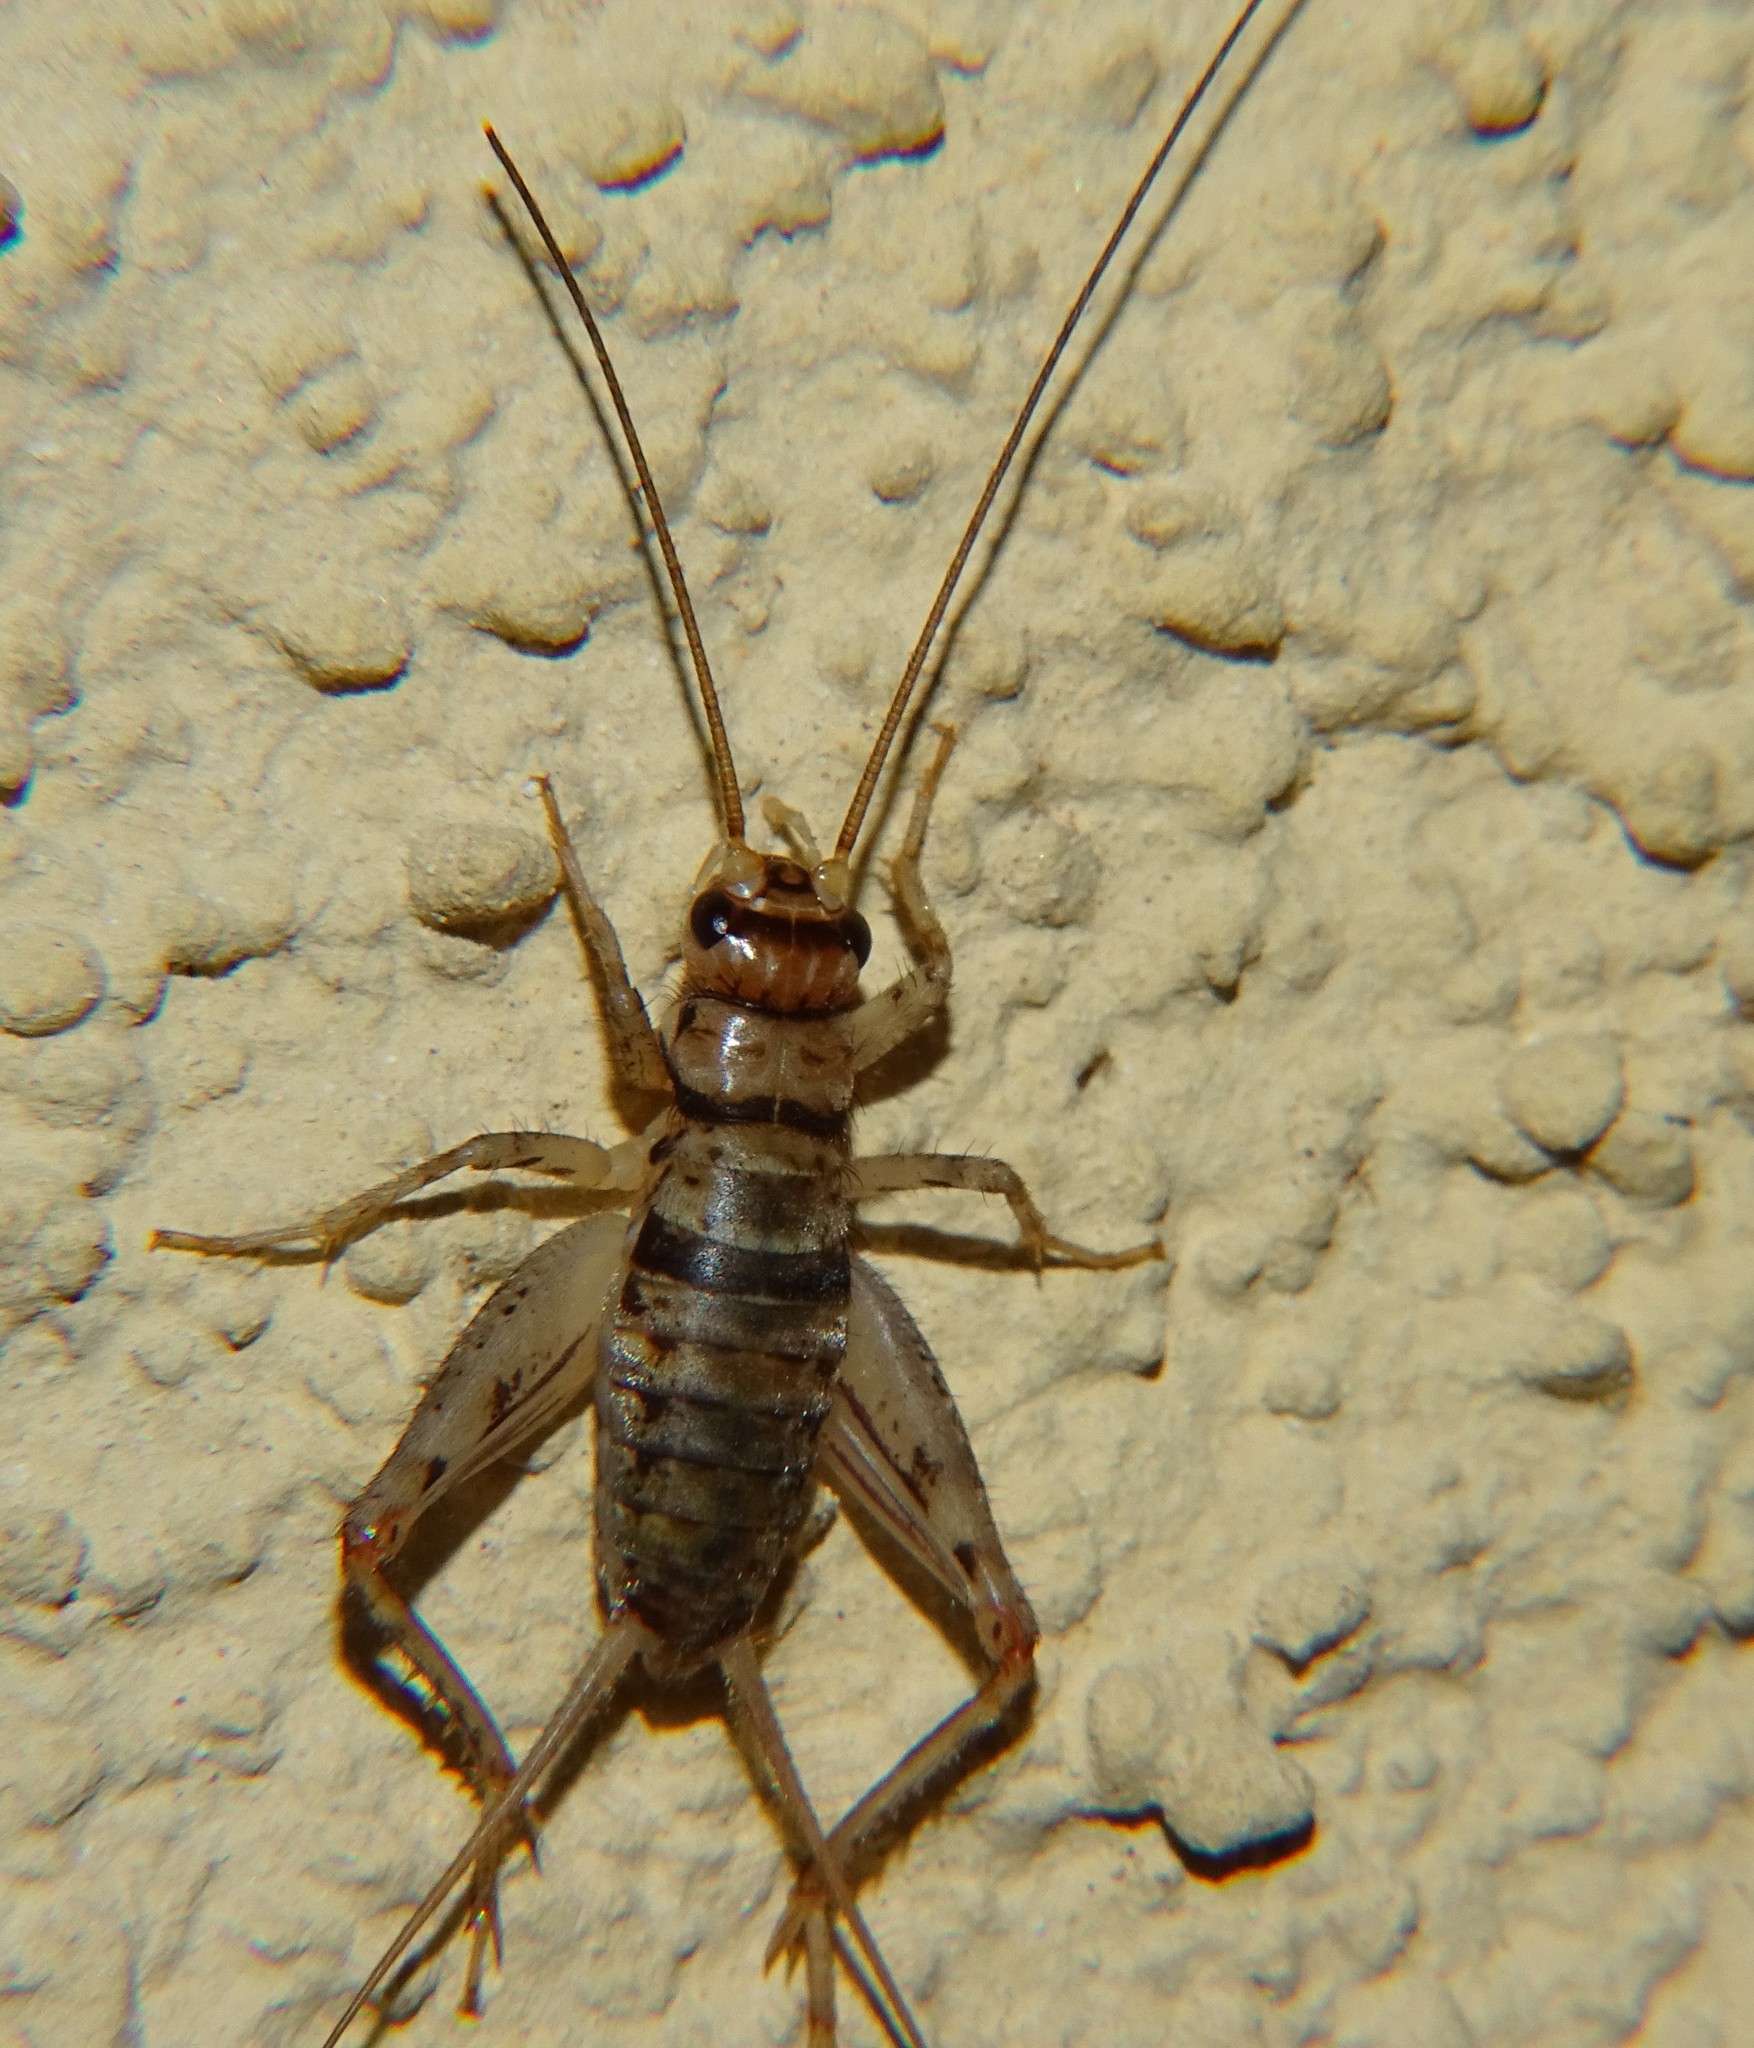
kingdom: Animalia
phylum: Arthropoda
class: Insecta
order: Orthoptera
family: Gryllidae
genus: Gryllodes
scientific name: Gryllodes sigillatus
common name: Tropical house cricket
